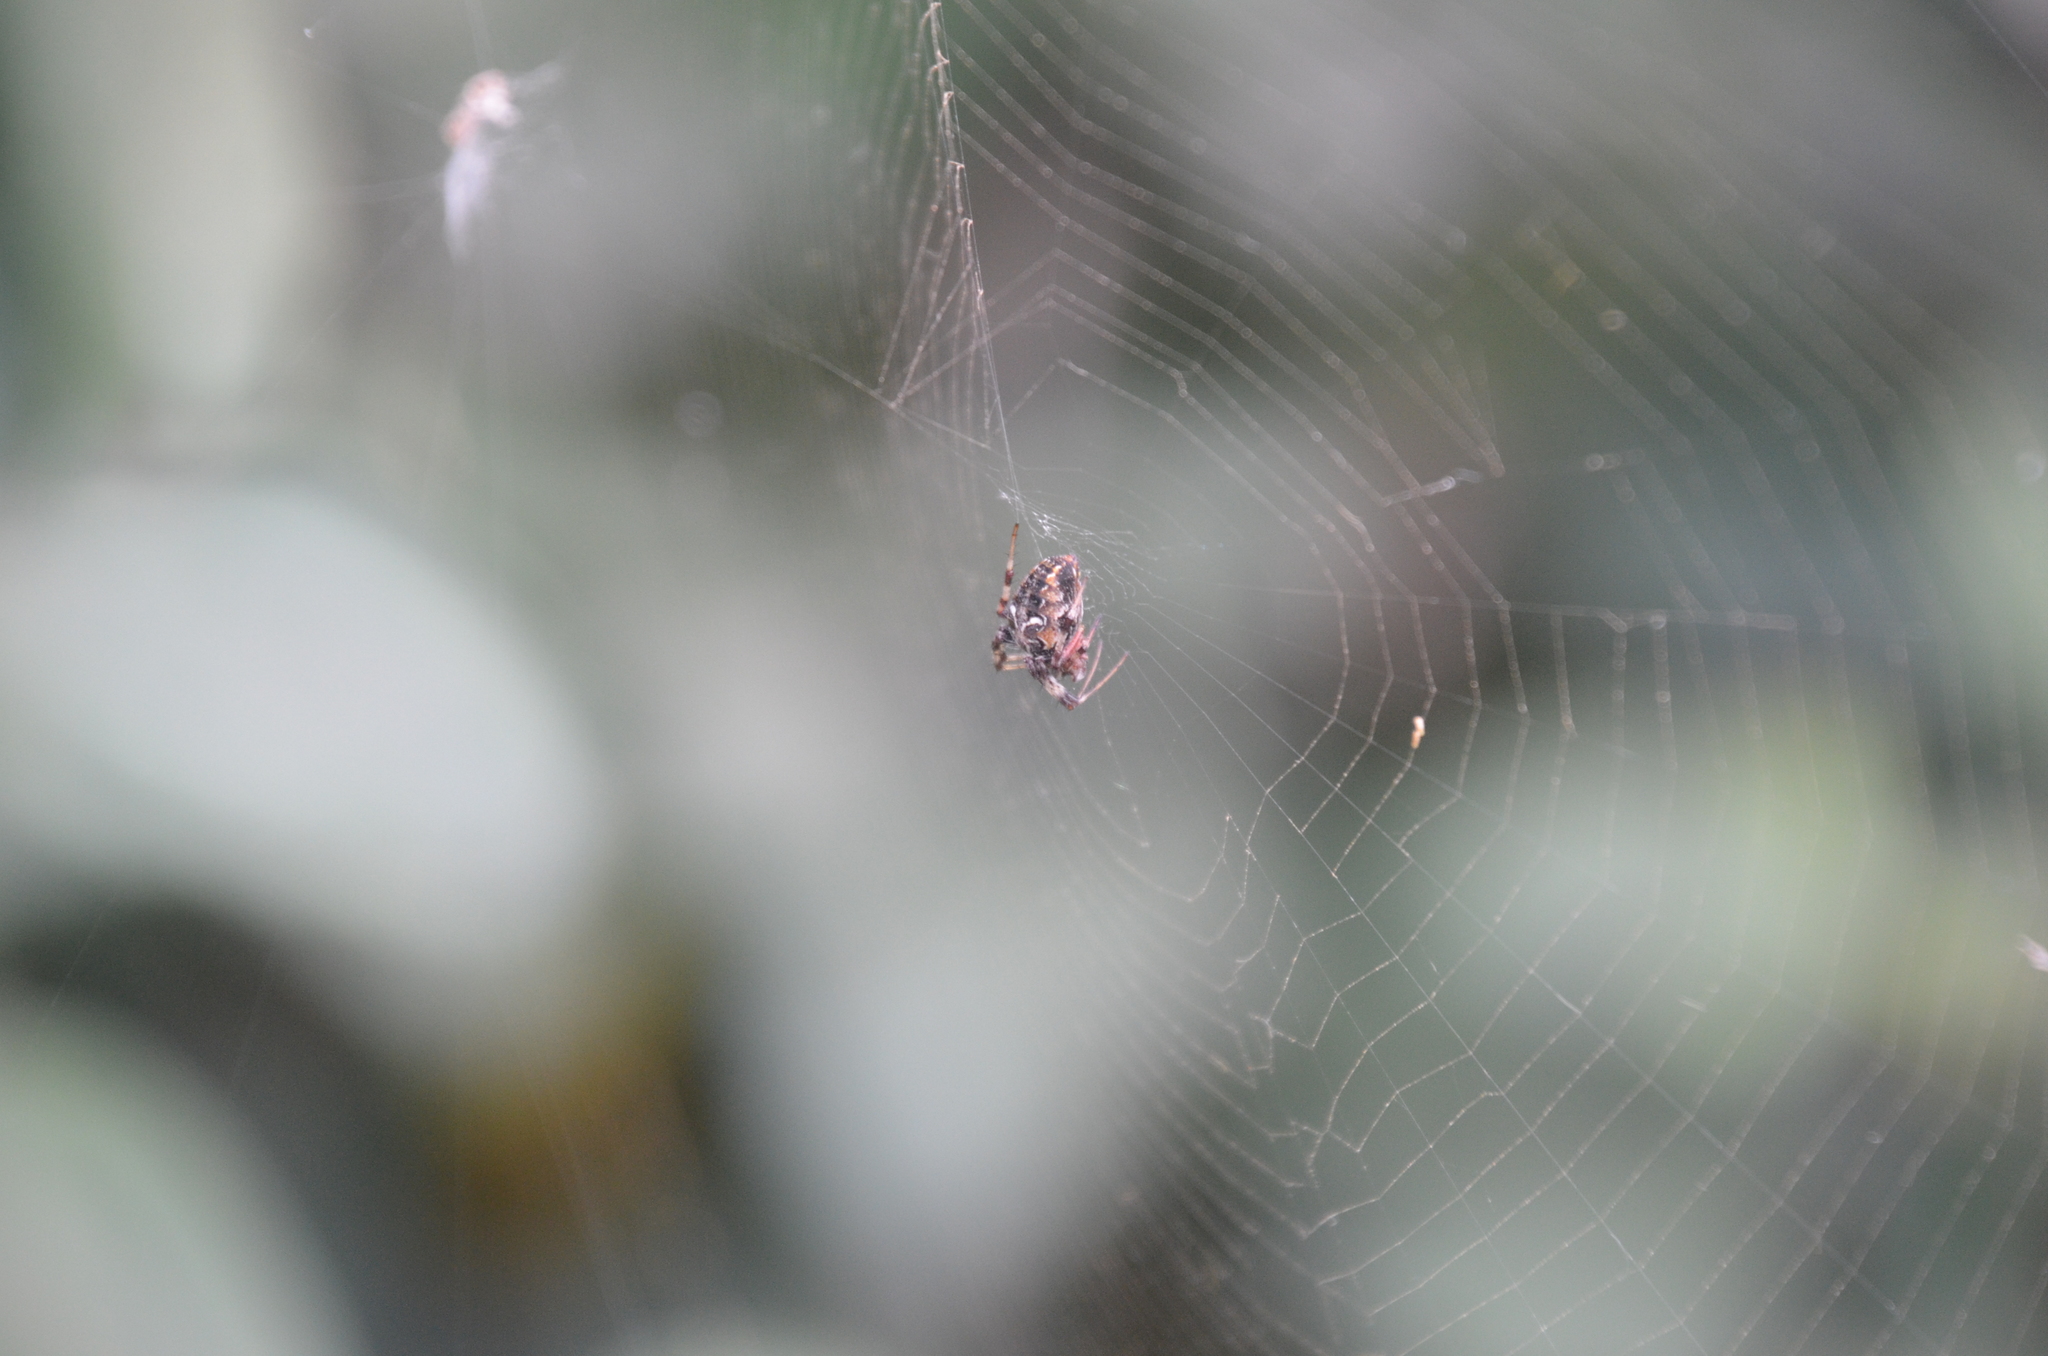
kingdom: Animalia
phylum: Arthropoda
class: Arachnida
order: Araneae
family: Araneidae
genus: Metepeira
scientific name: Metepeira
